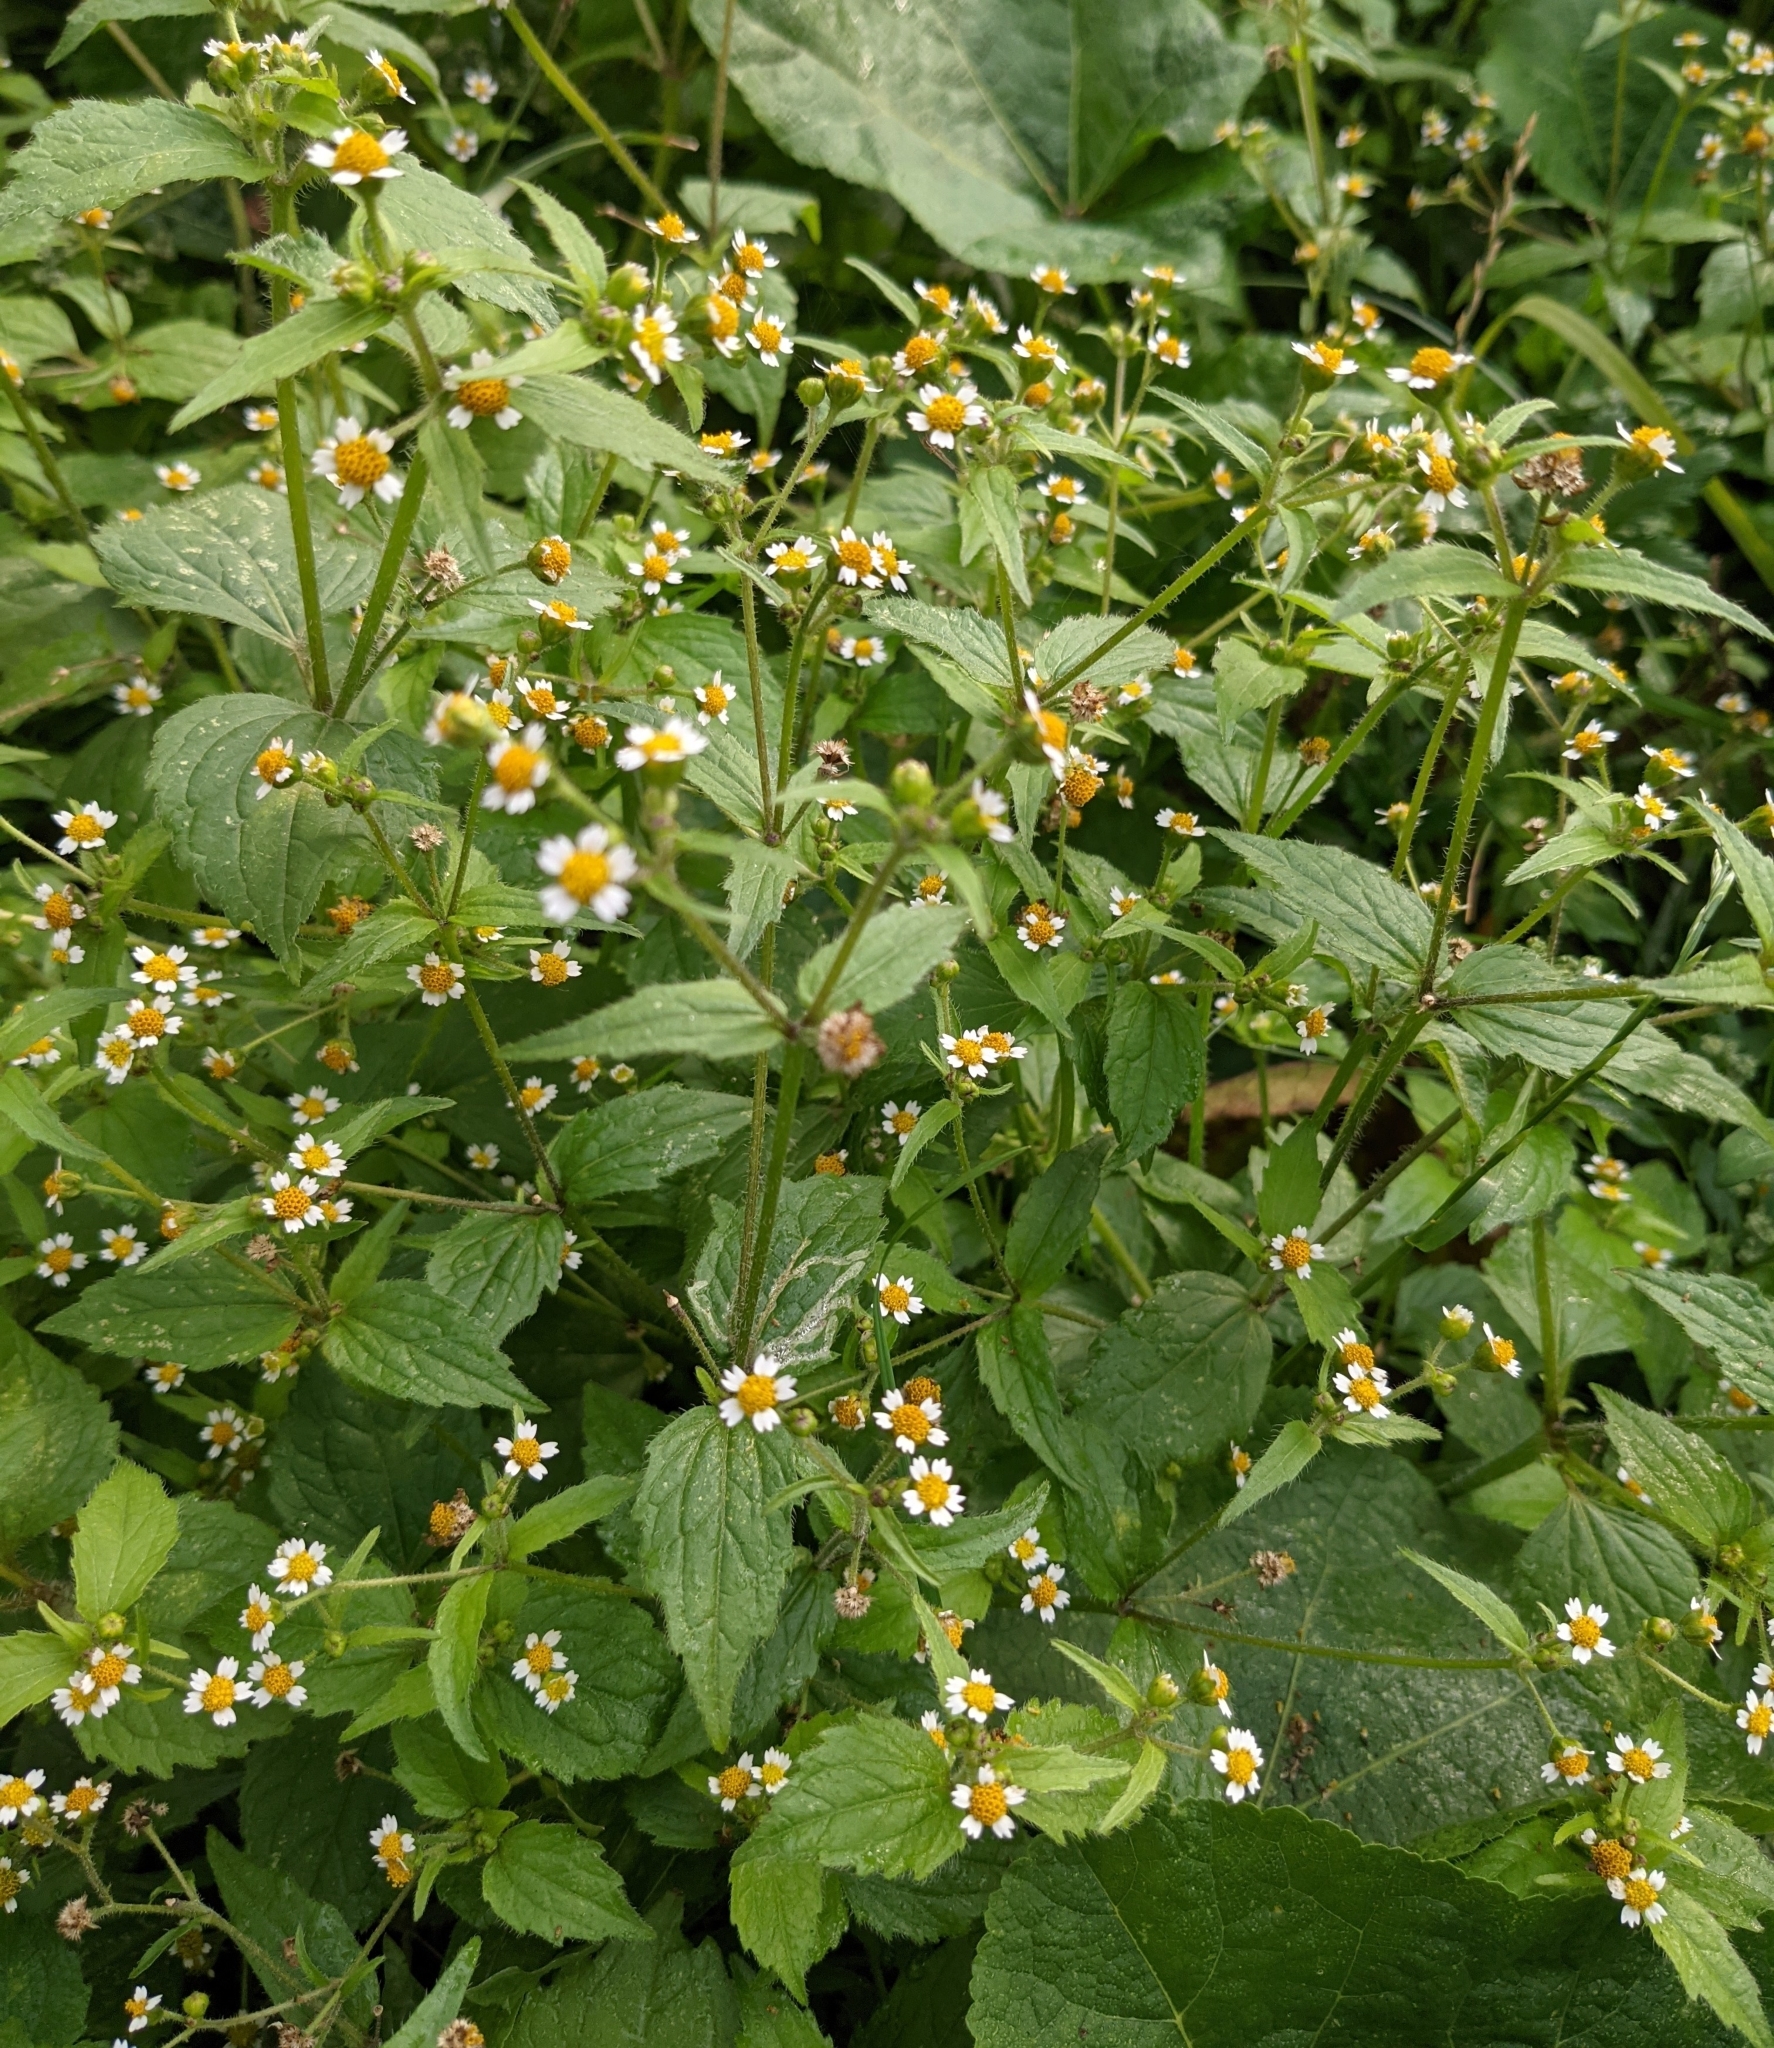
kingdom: Plantae
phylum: Tracheophyta
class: Magnoliopsida
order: Asterales
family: Asteraceae
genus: Galinsoga
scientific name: Galinsoga quadriradiata
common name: Shaggy soldier
